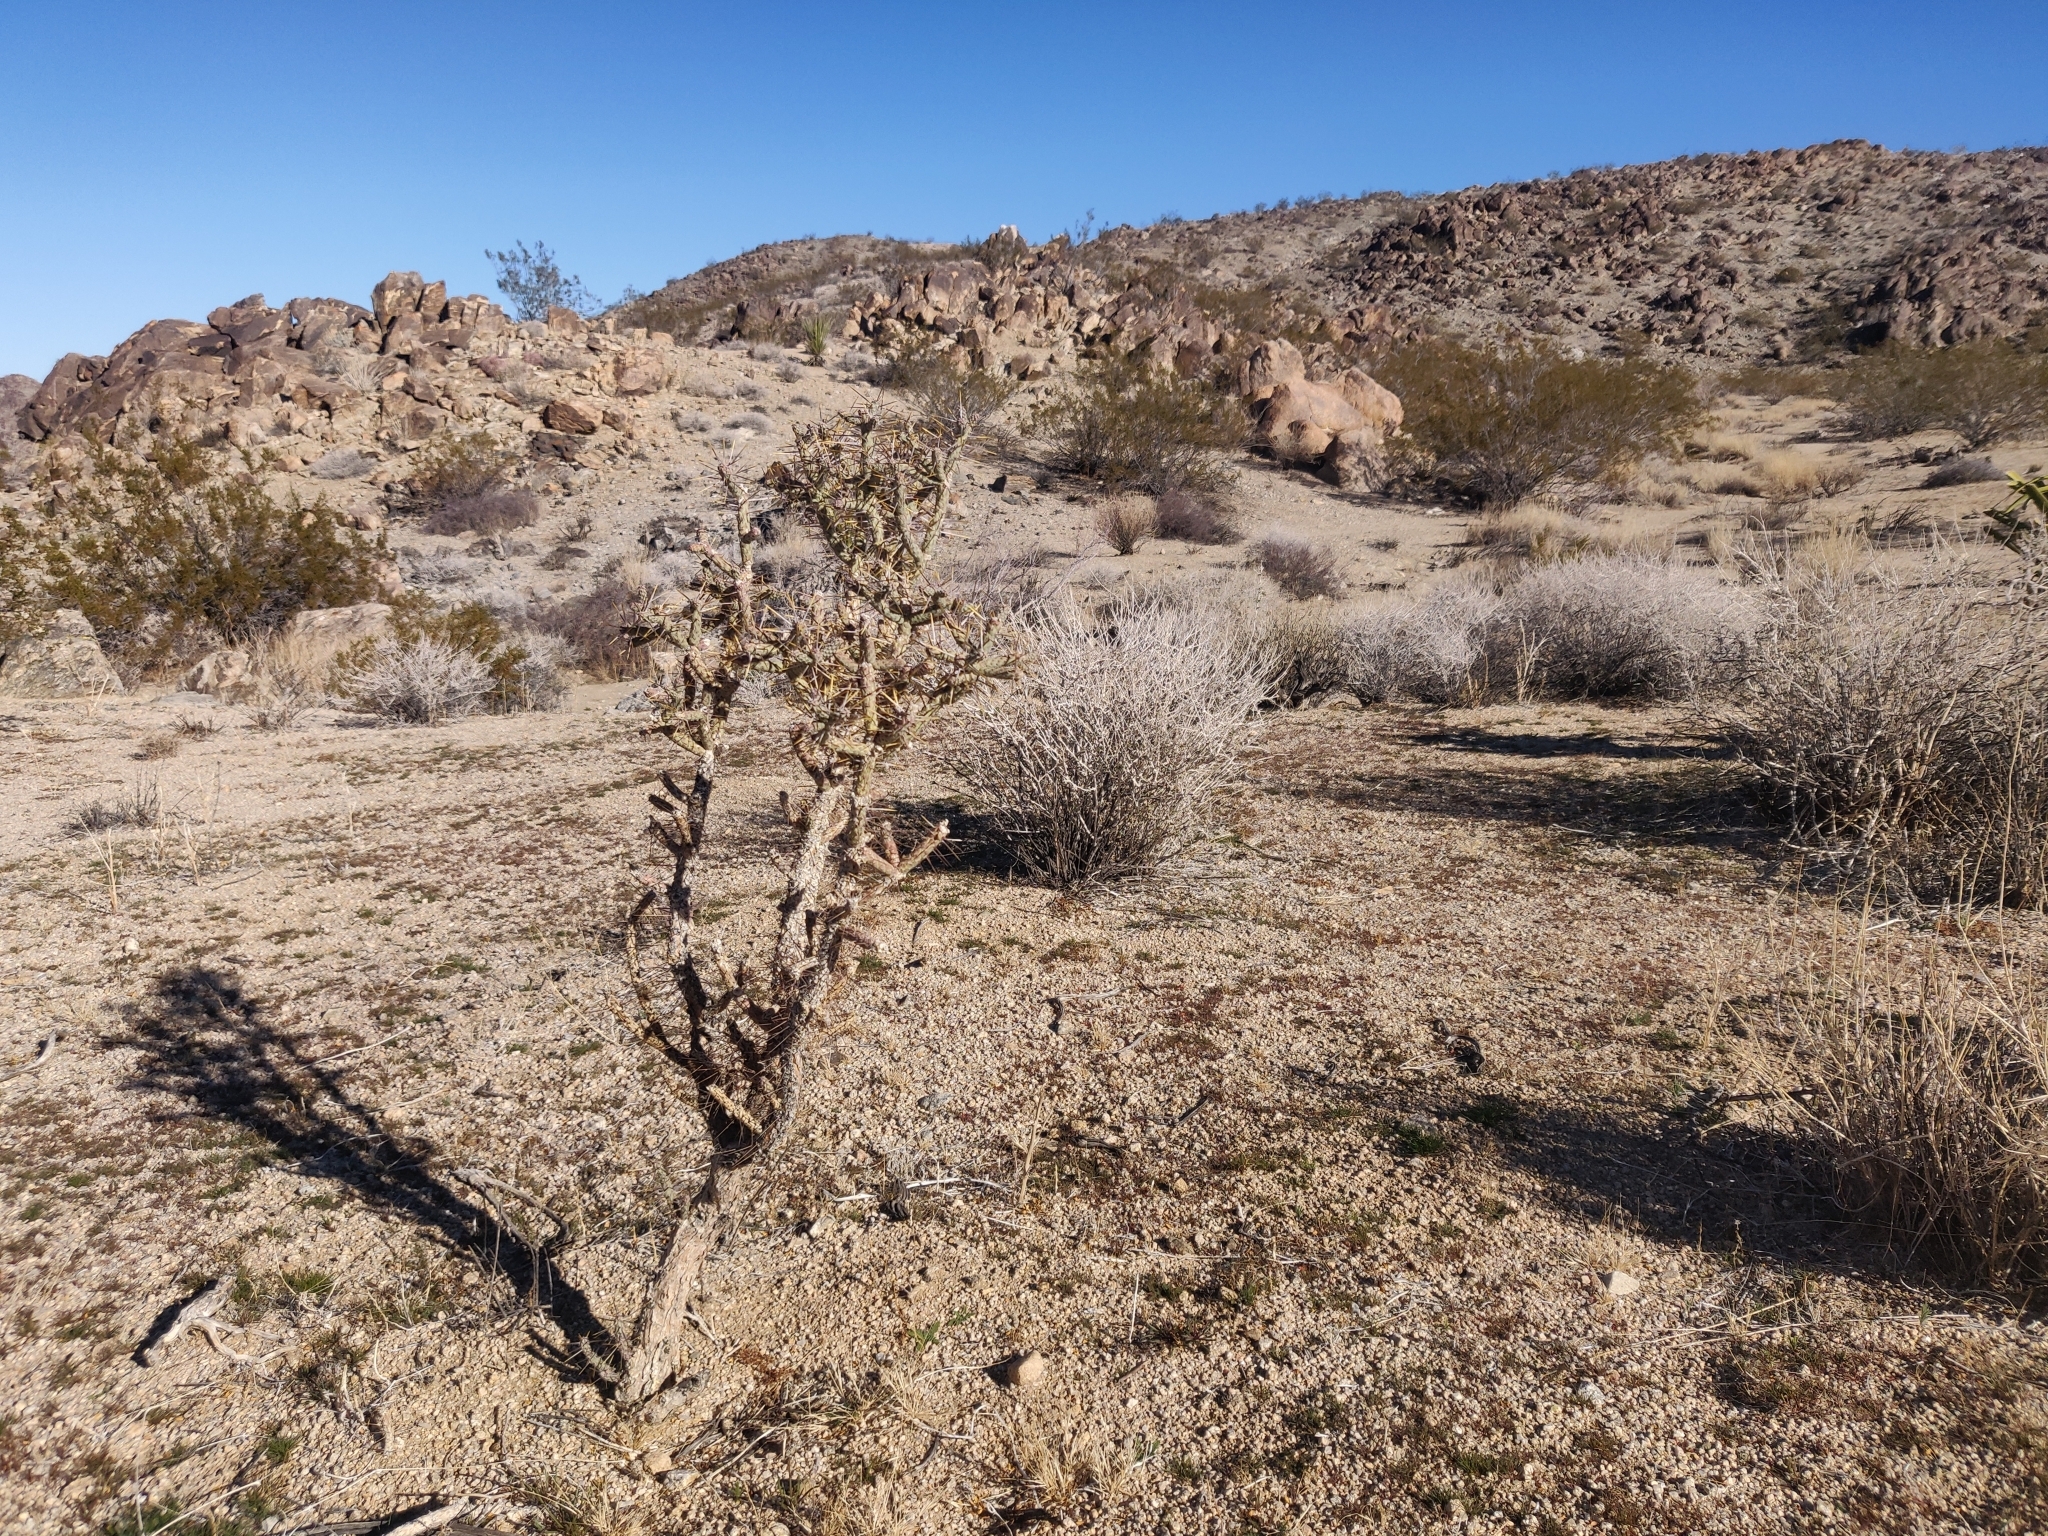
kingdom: Plantae
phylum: Tracheophyta
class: Magnoliopsida
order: Caryophyllales
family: Cactaceae
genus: Cylindropuntia
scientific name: Cylindropuntia ramosissima
